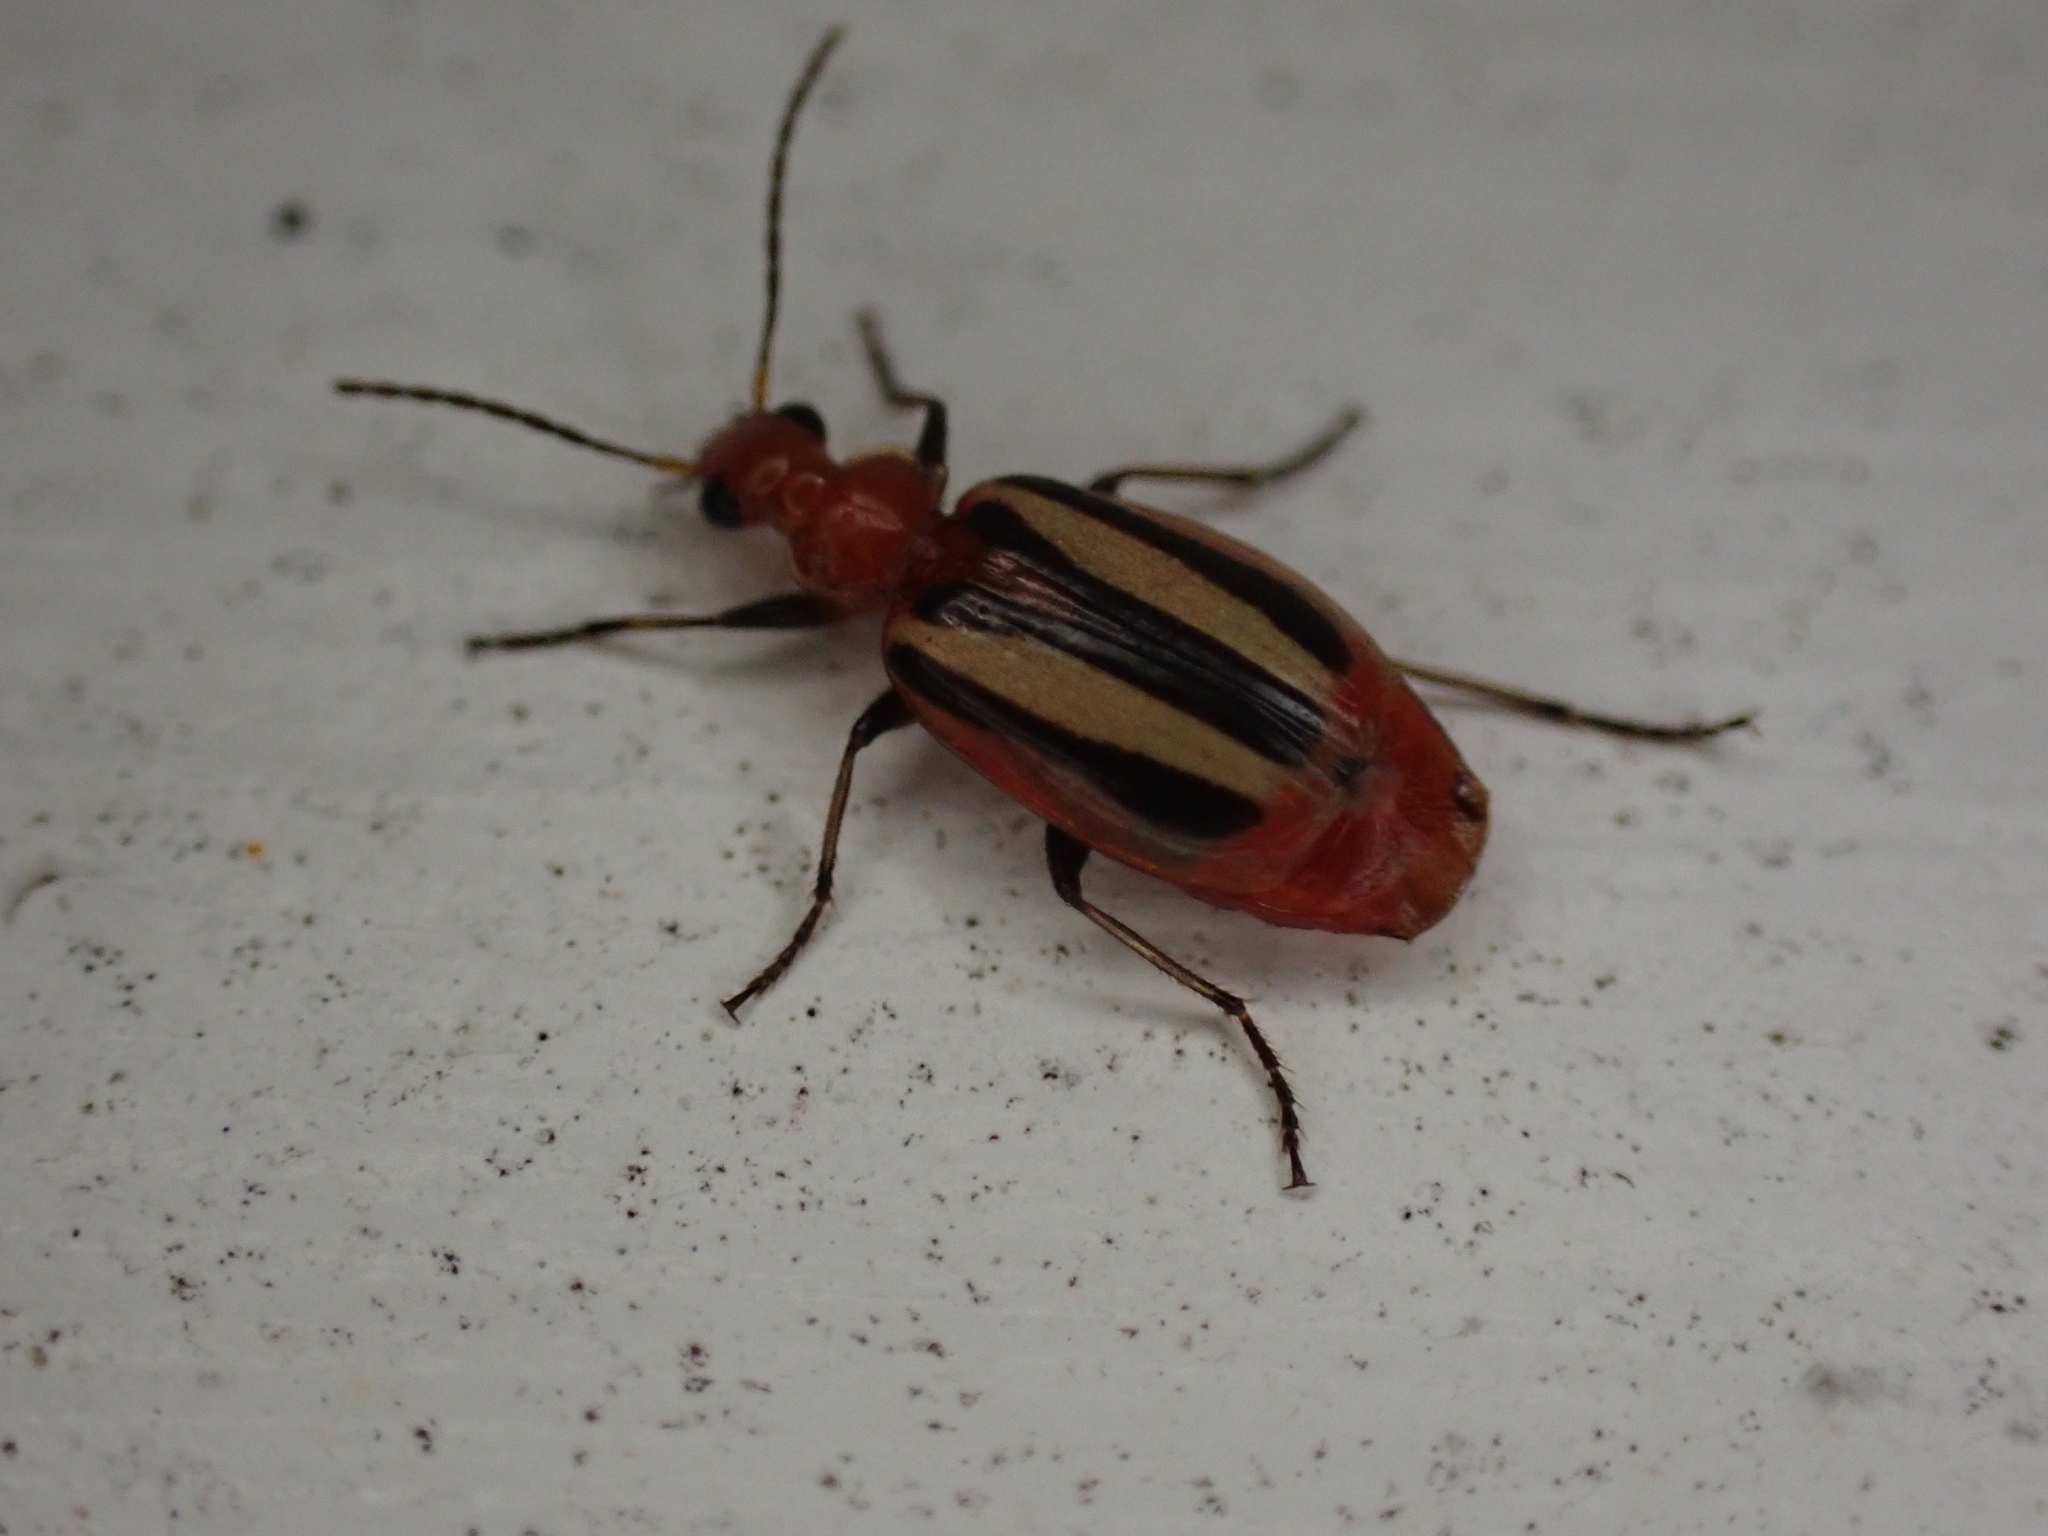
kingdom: Animalia
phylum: Arthropoda
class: Insecta
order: Coleoptera
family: Carabidae
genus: Lebia
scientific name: Lebia vittata
